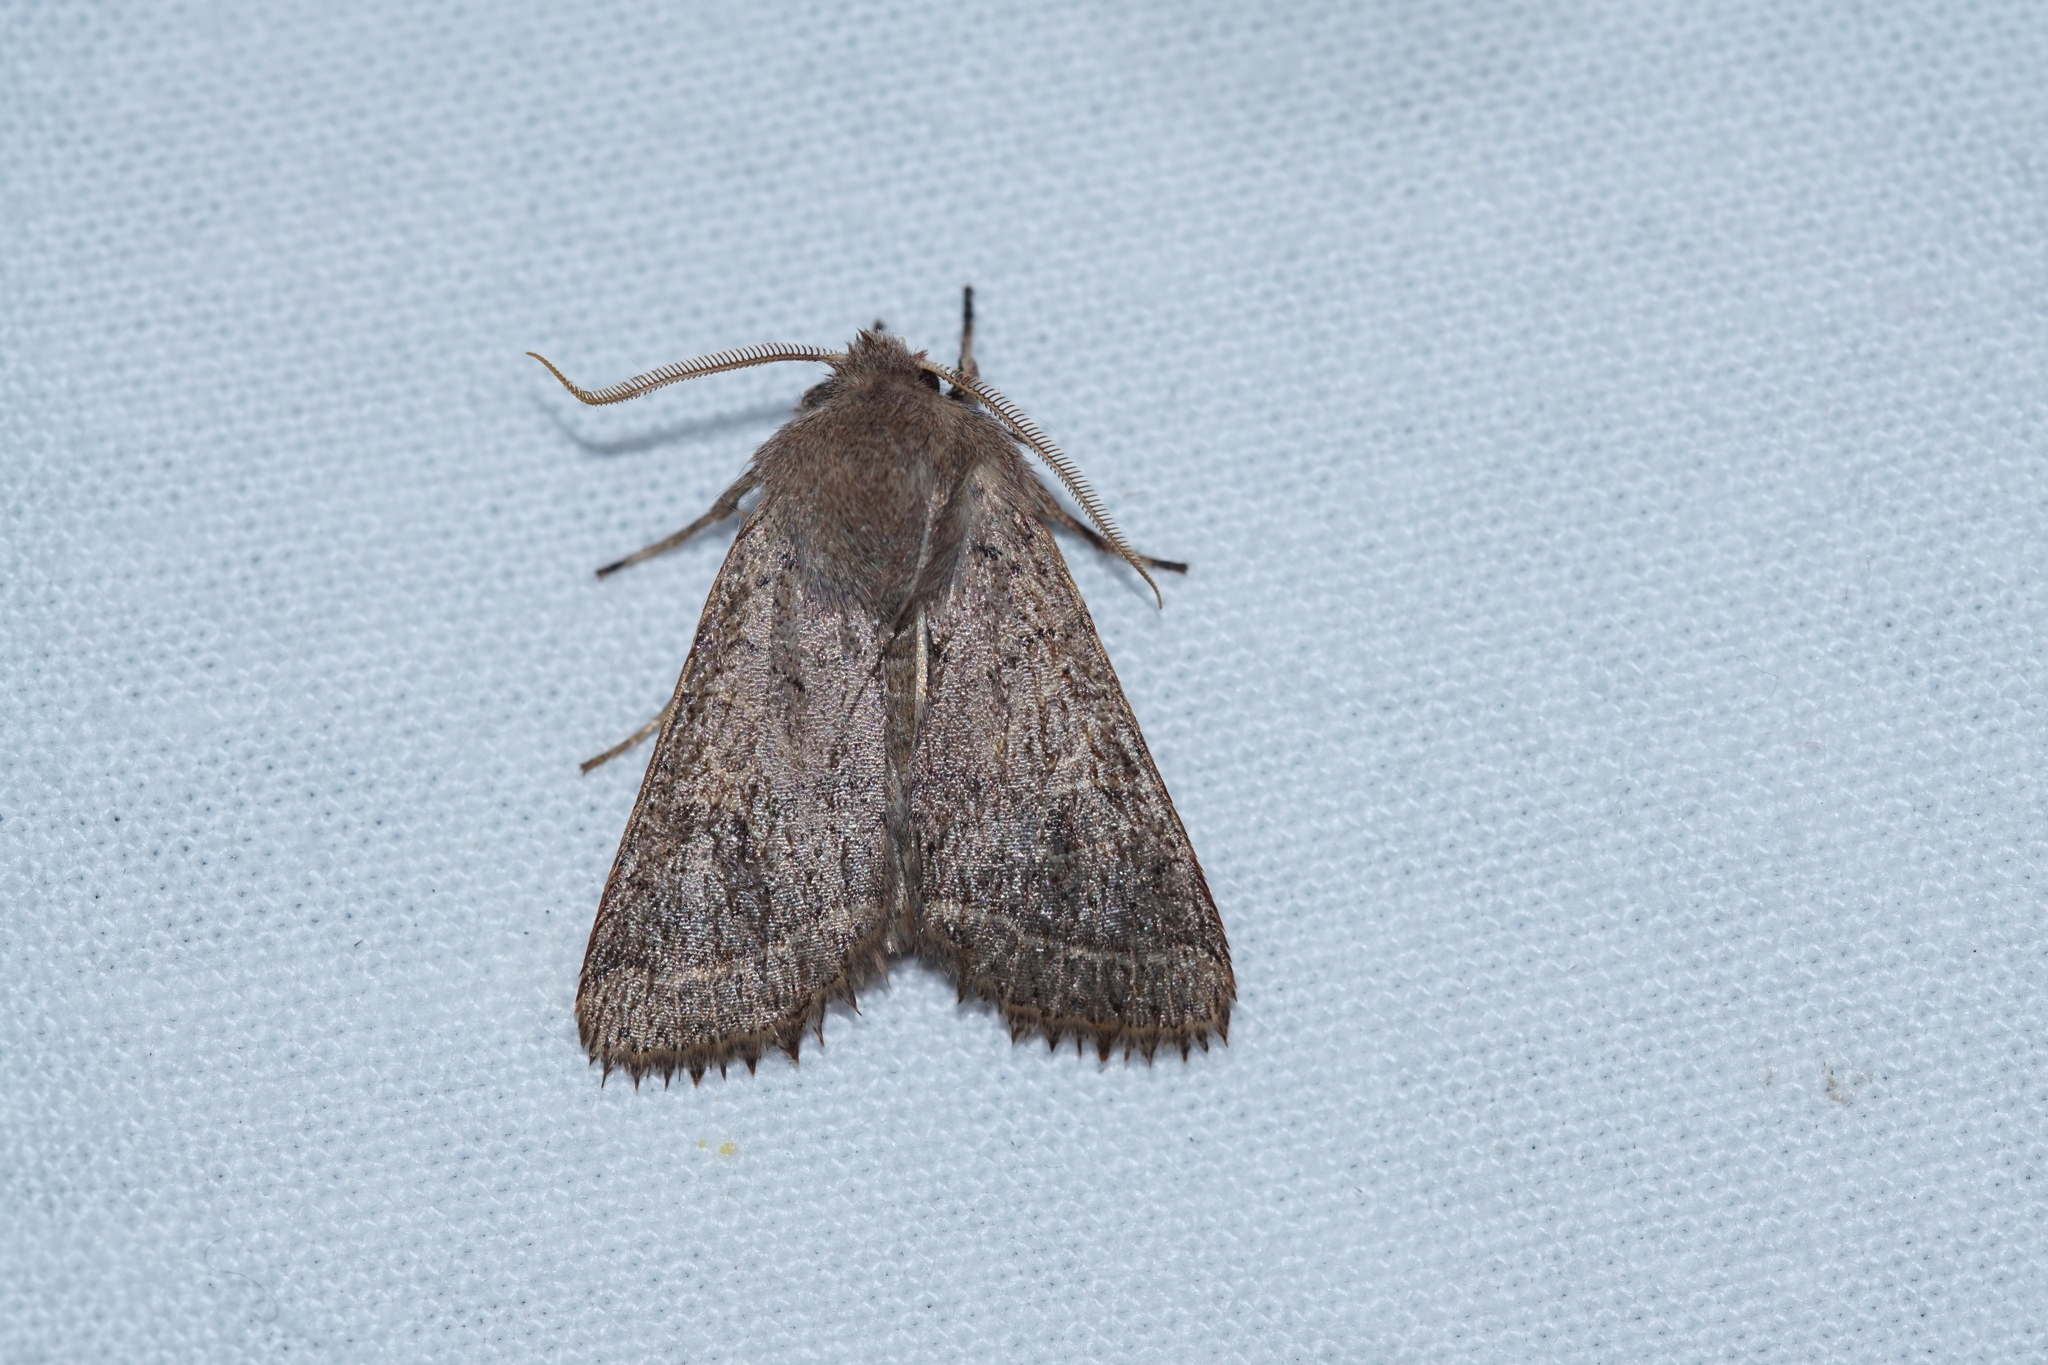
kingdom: Animalia
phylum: Arthropoda
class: Insecta
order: Lepidoptera
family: Noctuidae
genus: Orthosia
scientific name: Orthosia cerasi
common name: Common quaker
